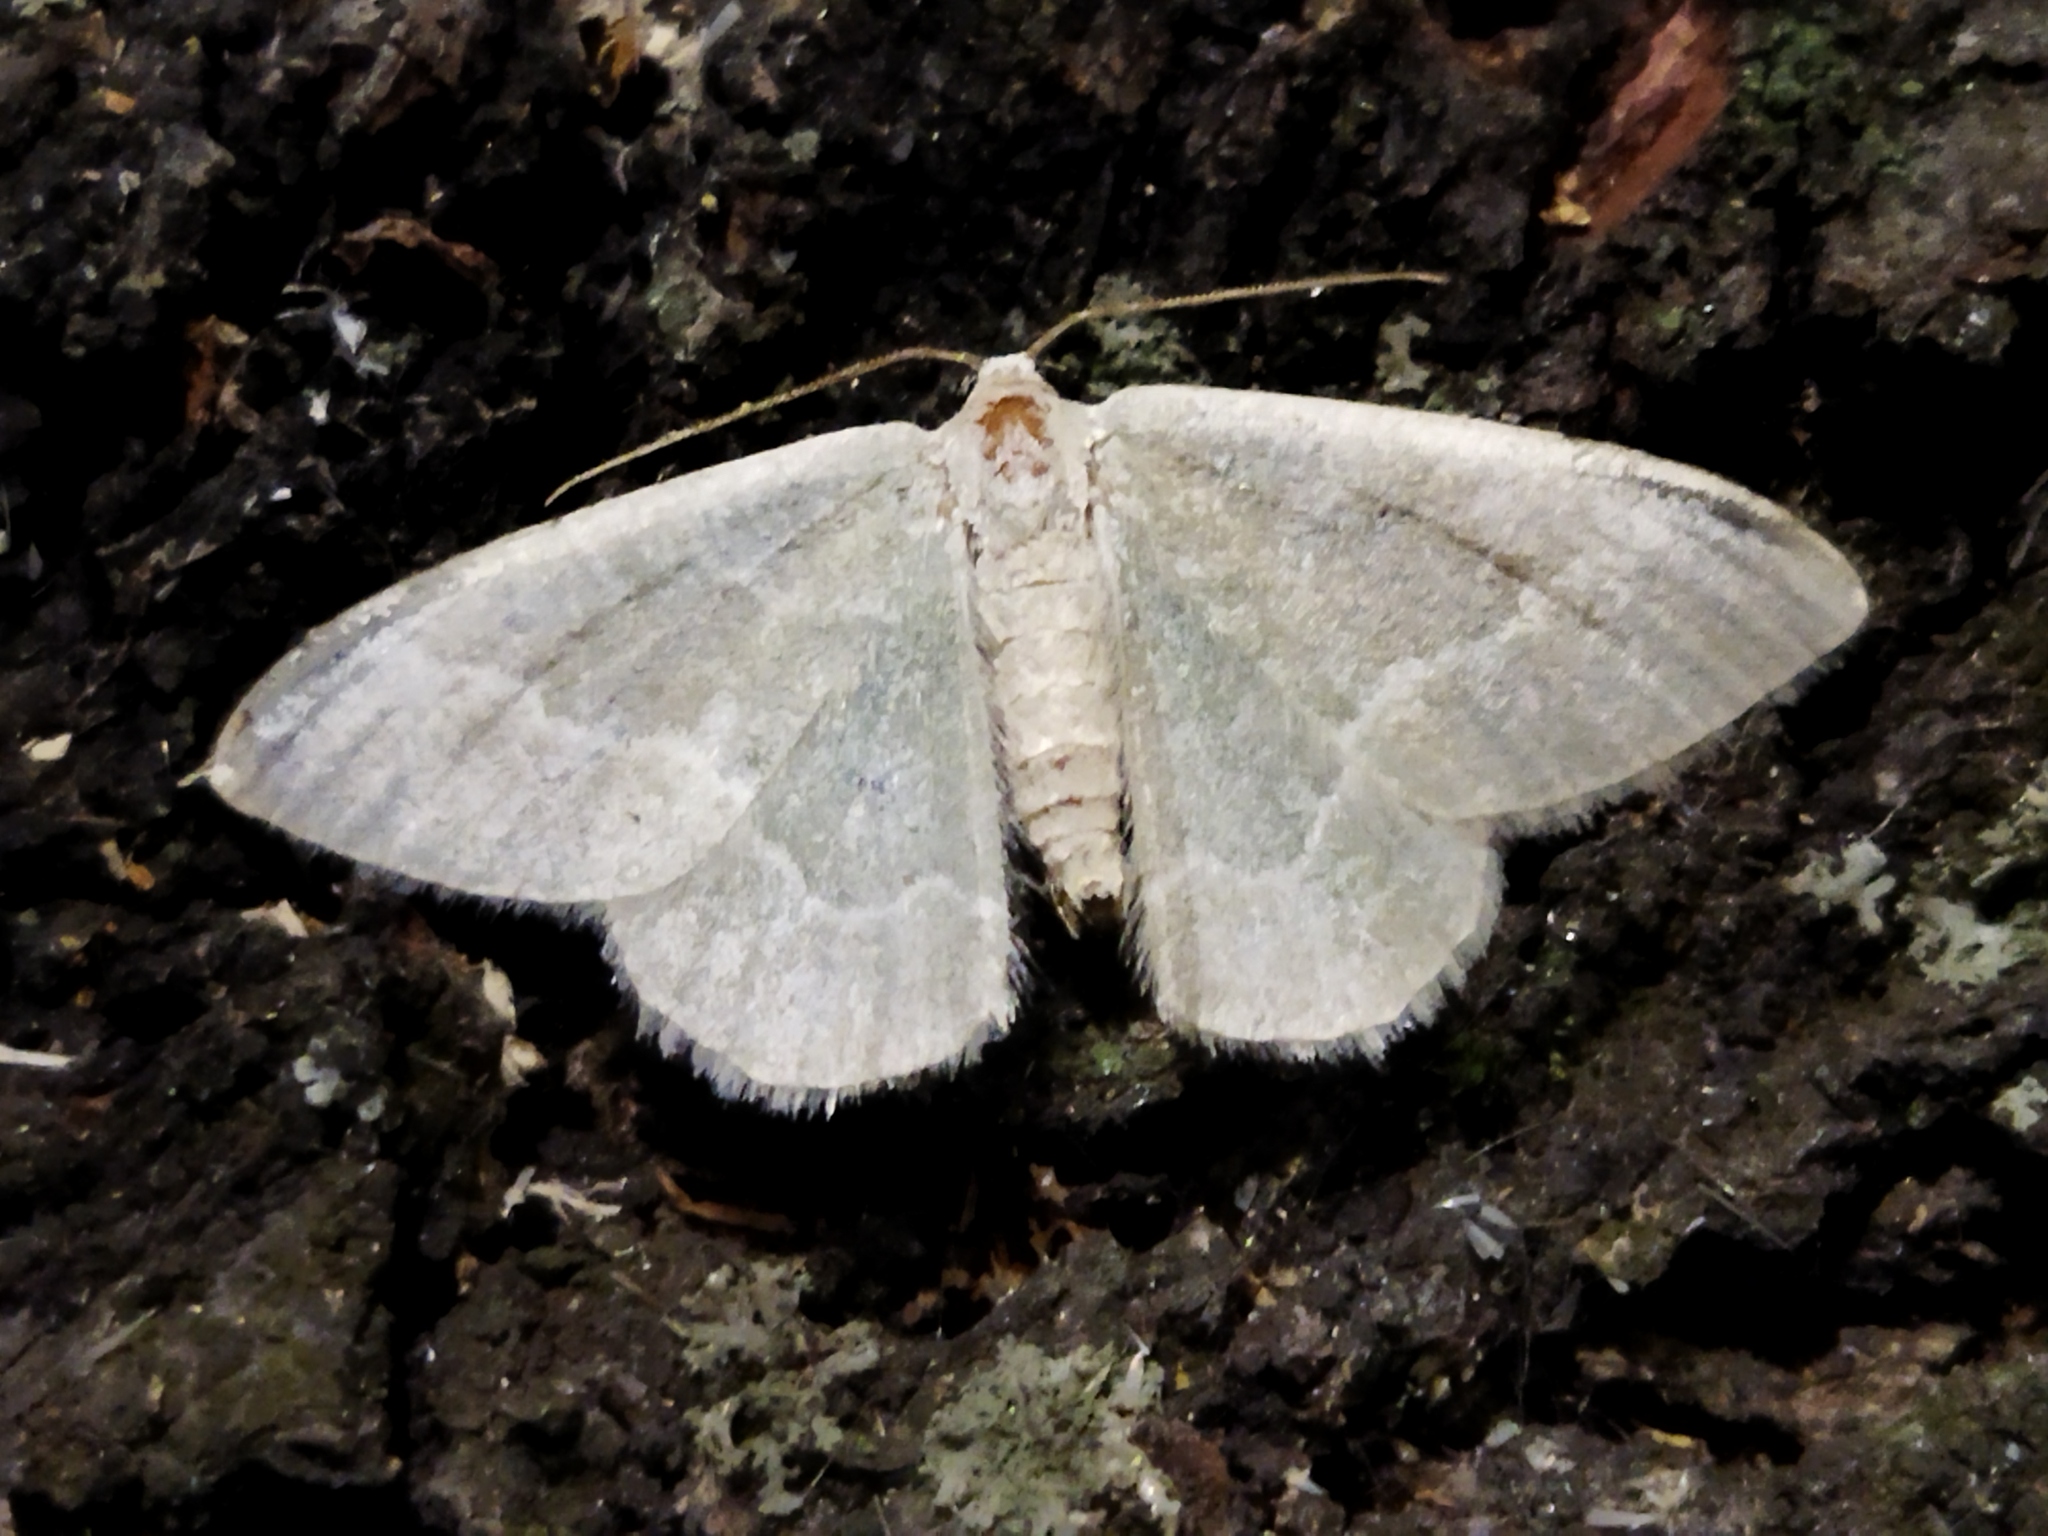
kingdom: Animalia
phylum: Arthropoda
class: Insecta
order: Lepidoptera
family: Geometridae
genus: Chlorissa
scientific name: Chlorissa etruscaria
